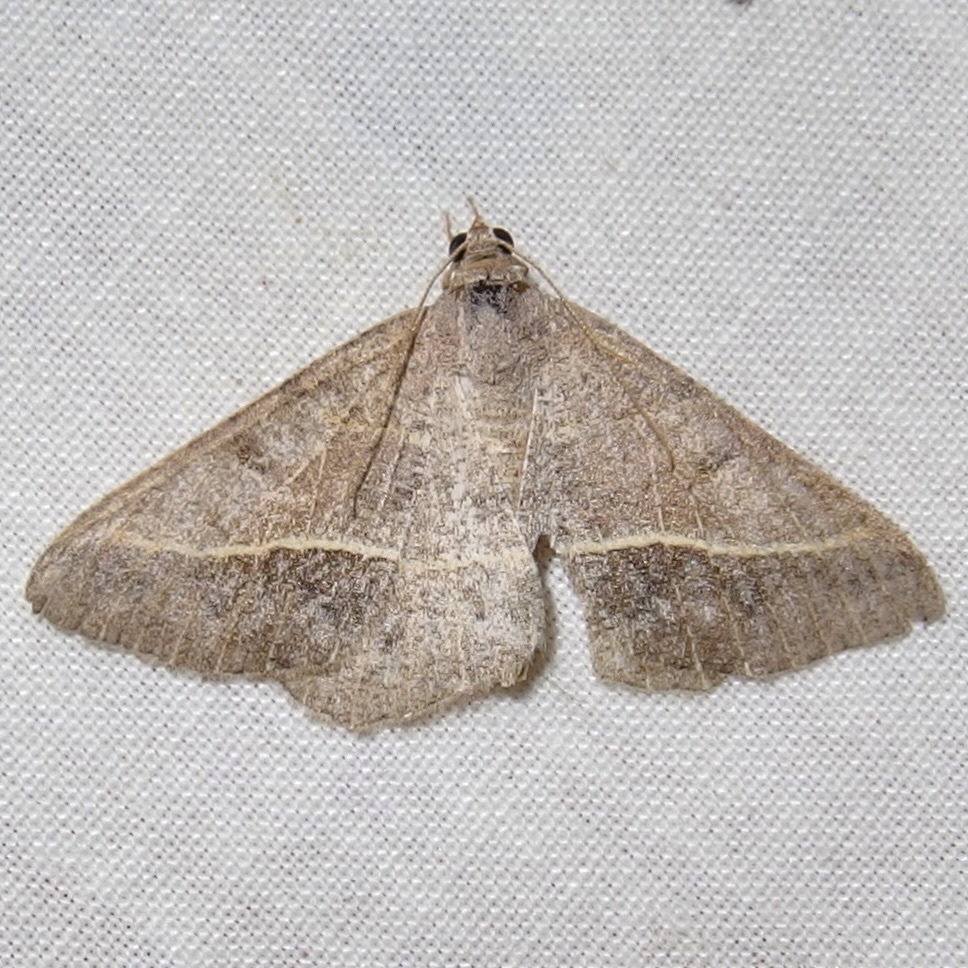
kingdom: Animalia
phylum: Arthropoda
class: Insecta
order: Lepidoptera
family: Geometridae
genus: Digrammia
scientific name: Digrammia irrorata
